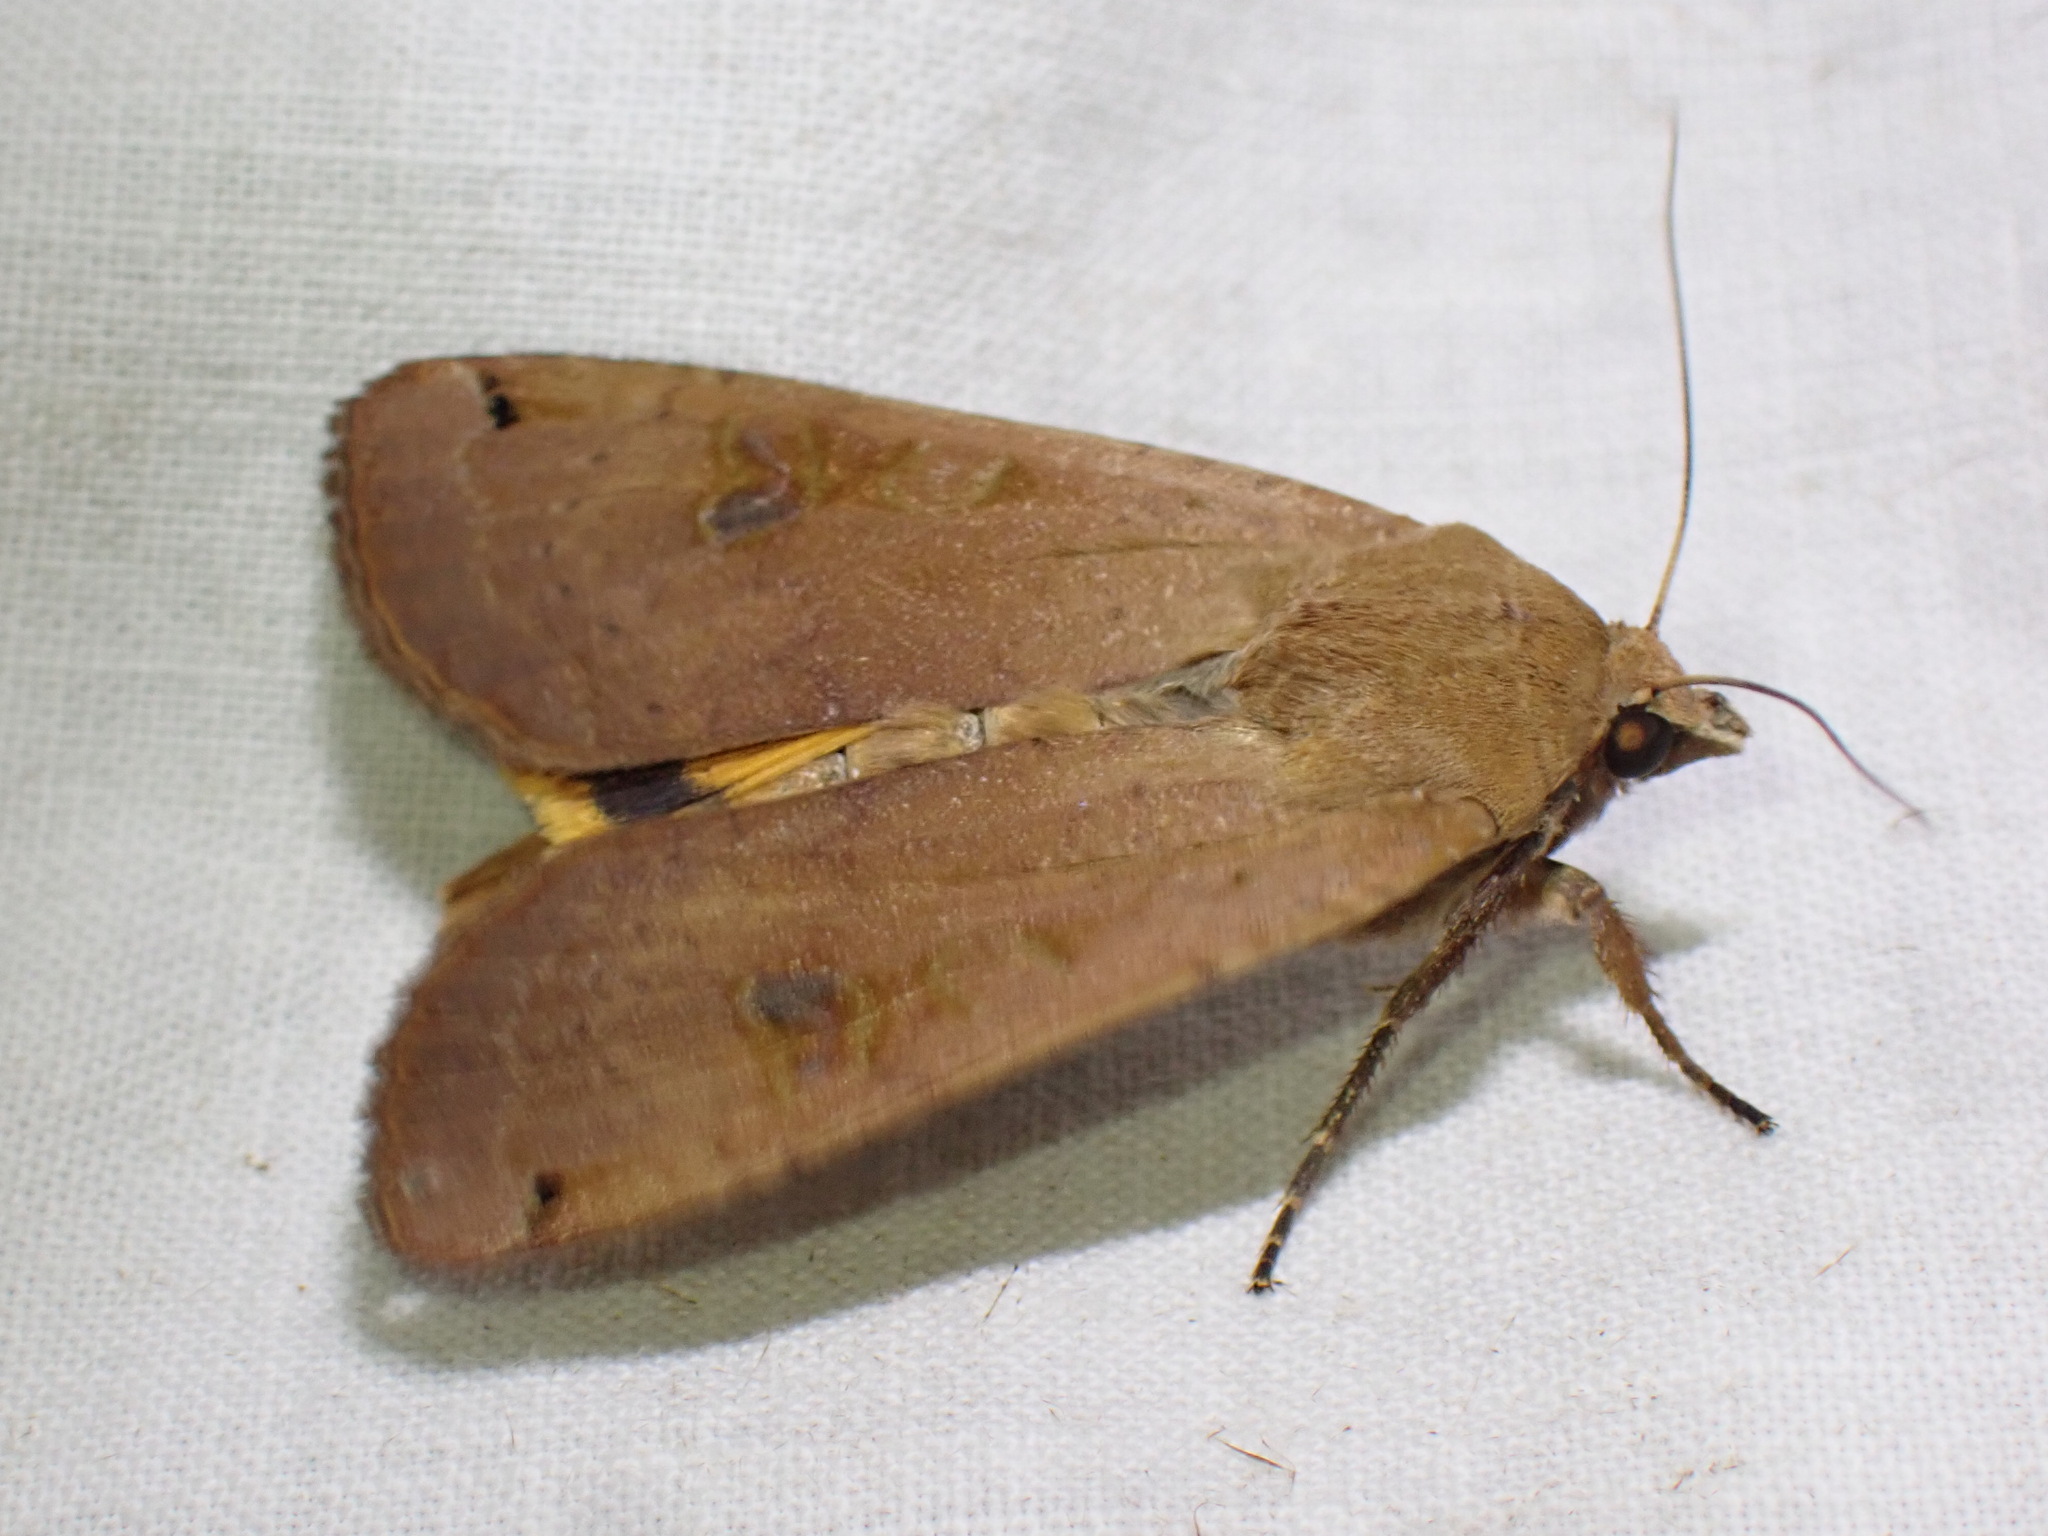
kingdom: Animalia
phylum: Arthropoda
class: Insecta
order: Lepidoptera
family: Noctuidae
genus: Noctua
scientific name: Noctua pronuba
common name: Large yellow underwing
